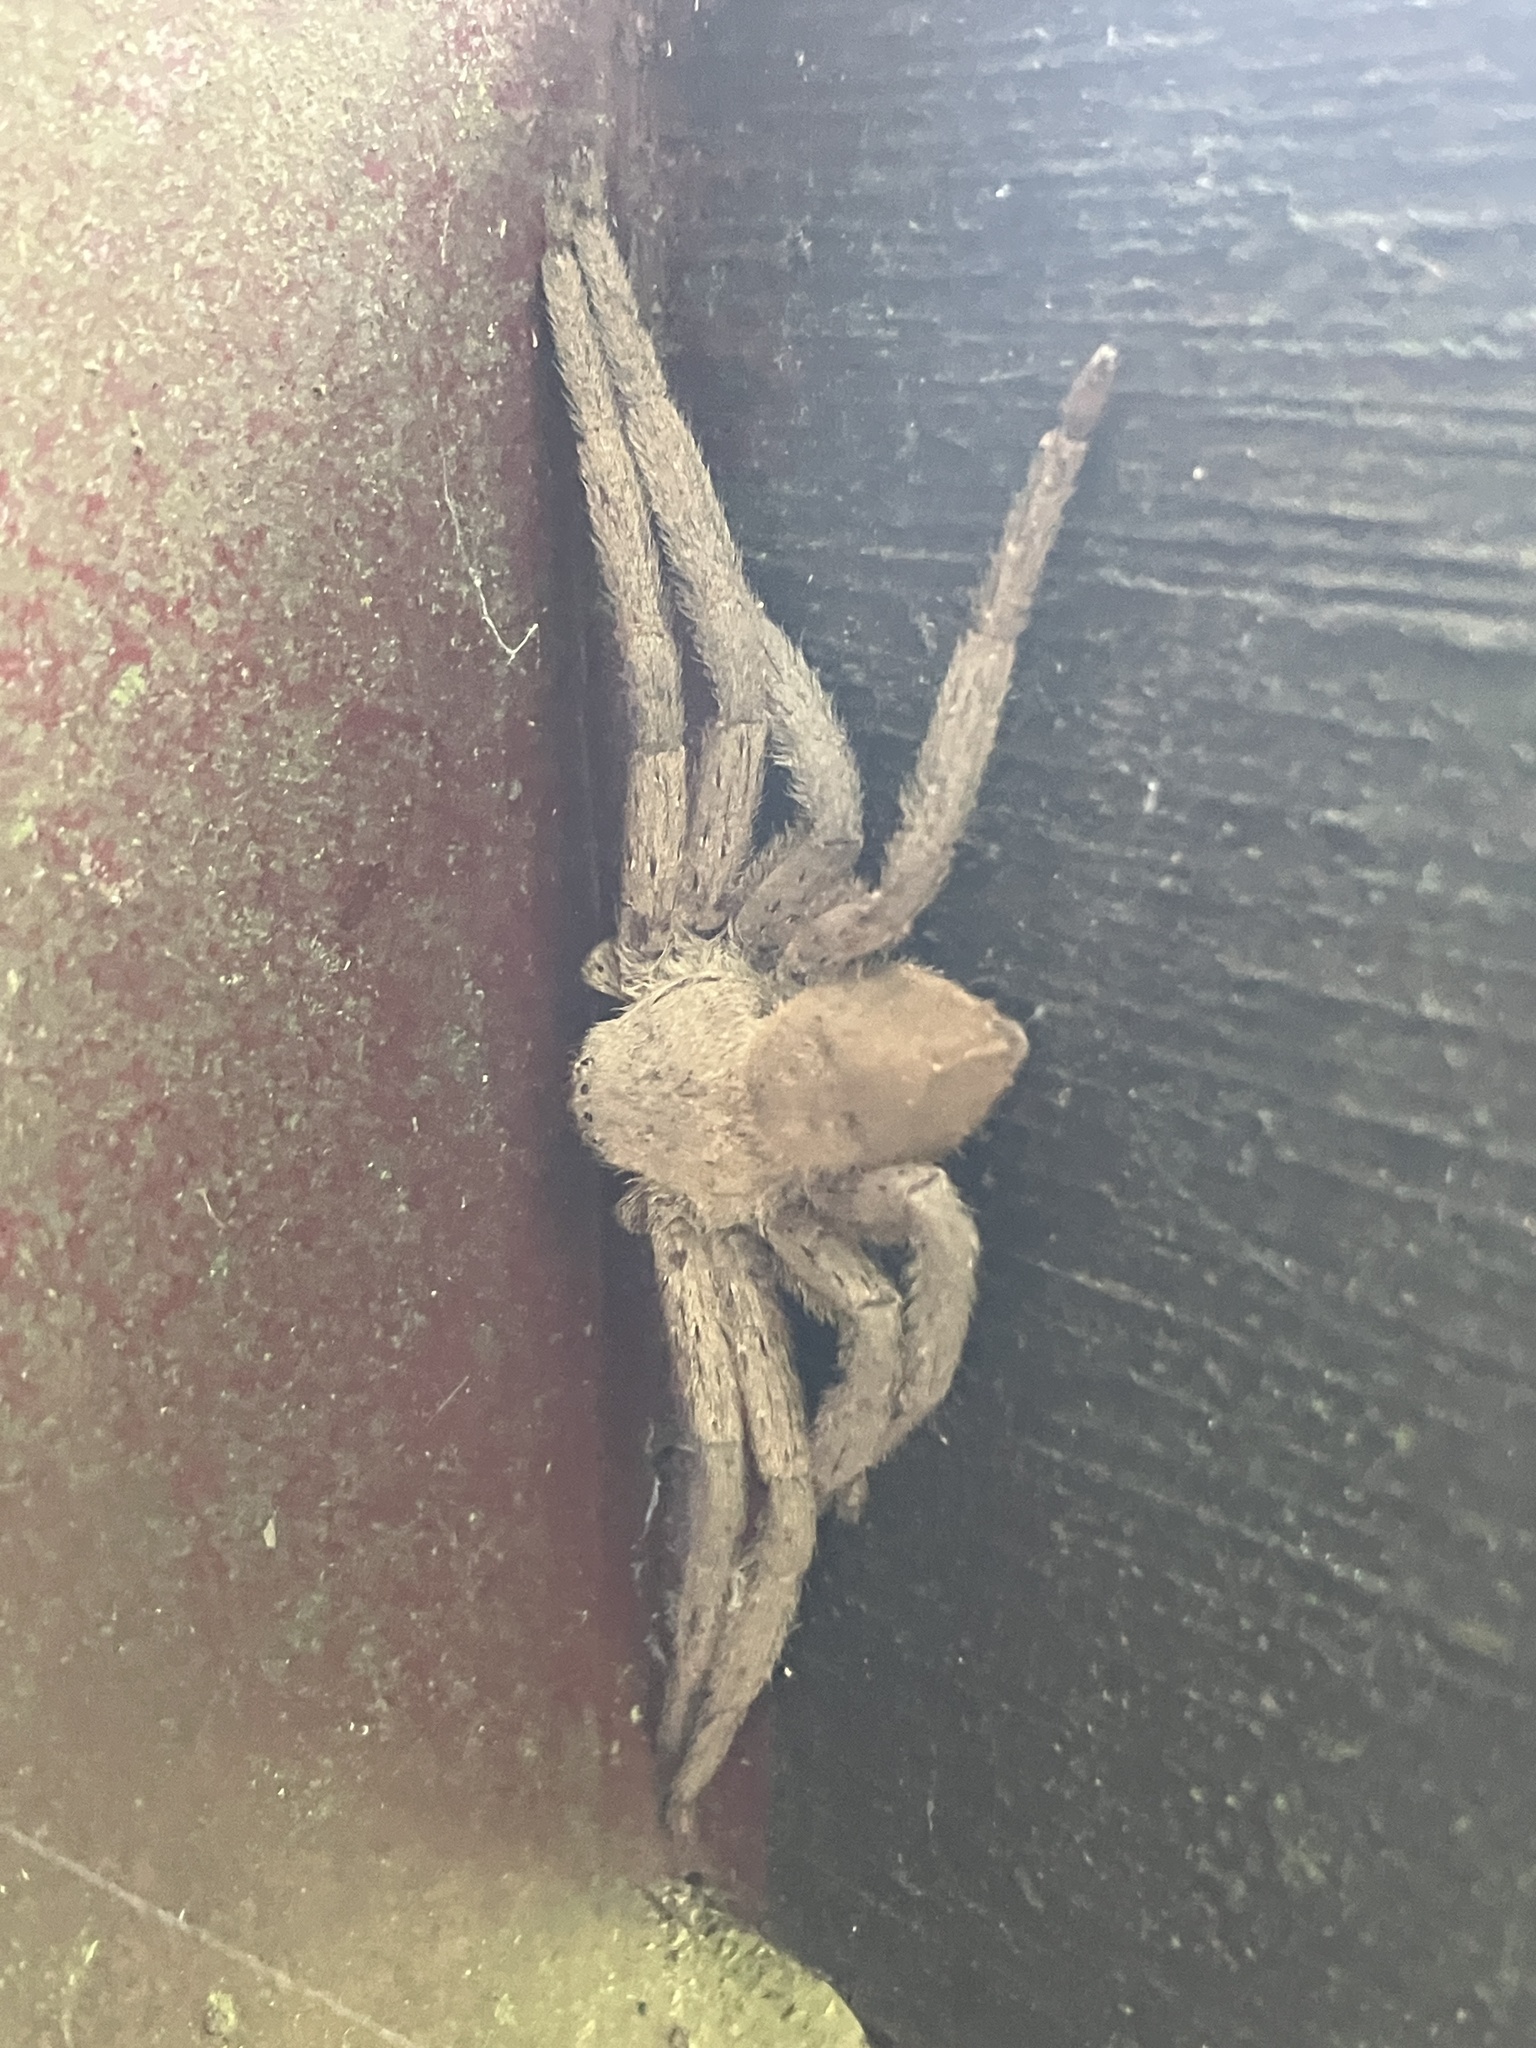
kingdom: Animalia
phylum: Arthropoda
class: Arachnida
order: Araneae
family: Sparassidae
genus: Heteropoda
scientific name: Heteropoda pingtungensis
